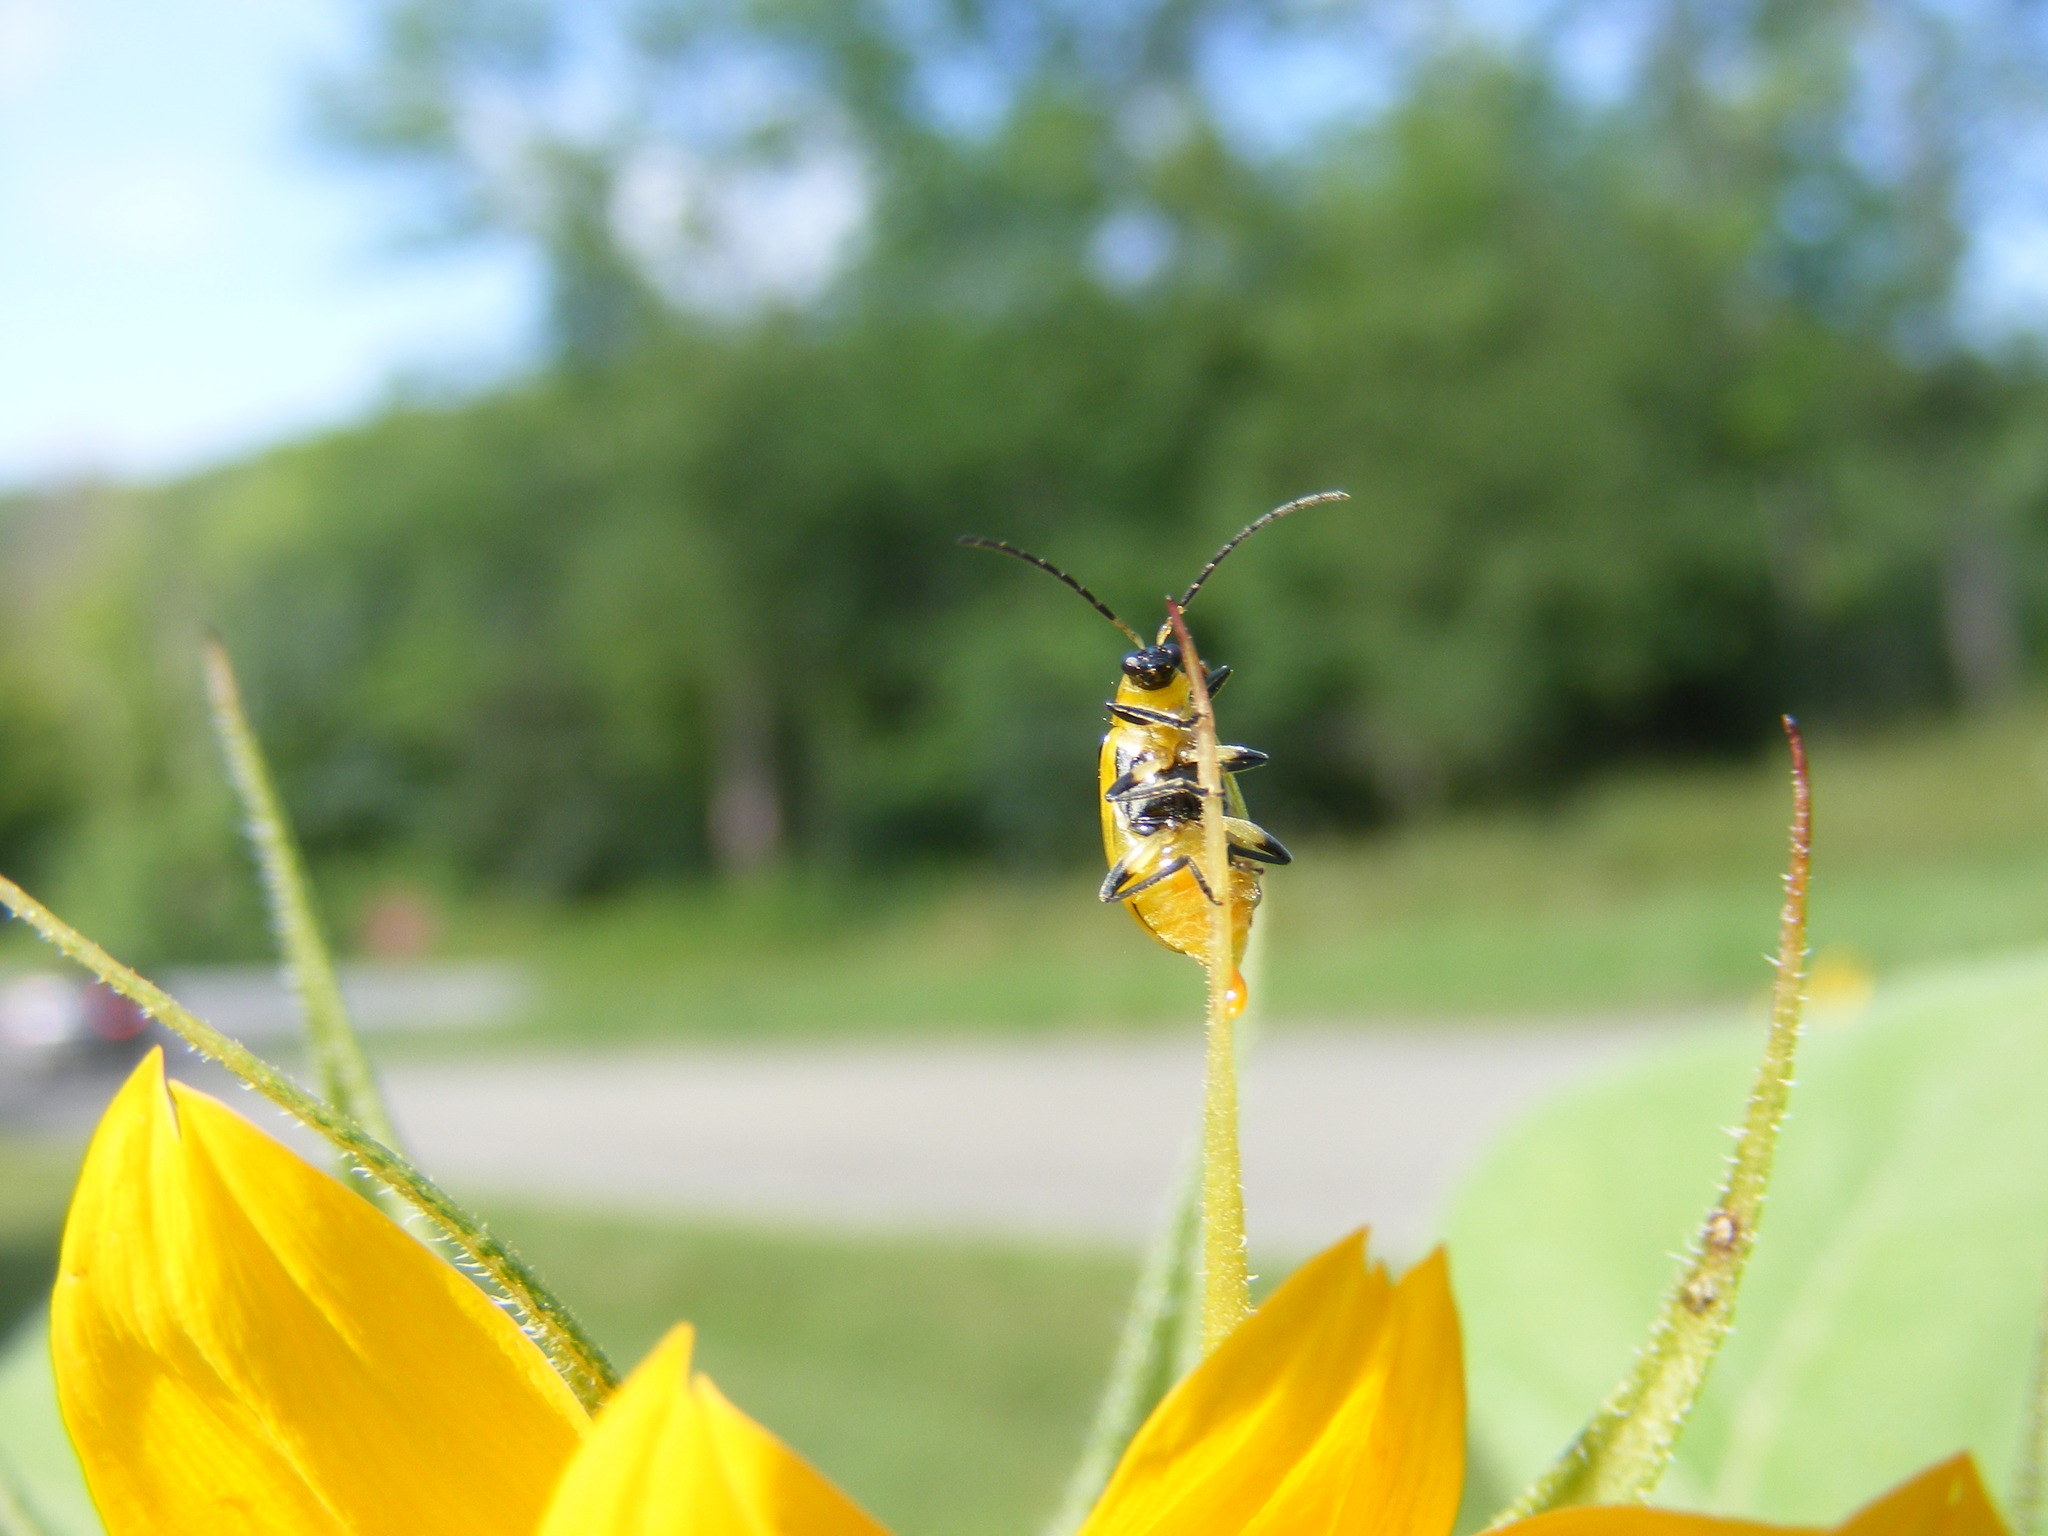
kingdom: Animalia
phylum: Arthropoda
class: Insecta
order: Coleoptera
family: Chrysomelidae
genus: Diabrotica
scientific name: Diabrotica undecimpunctata
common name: Spotted cucumber beetle
